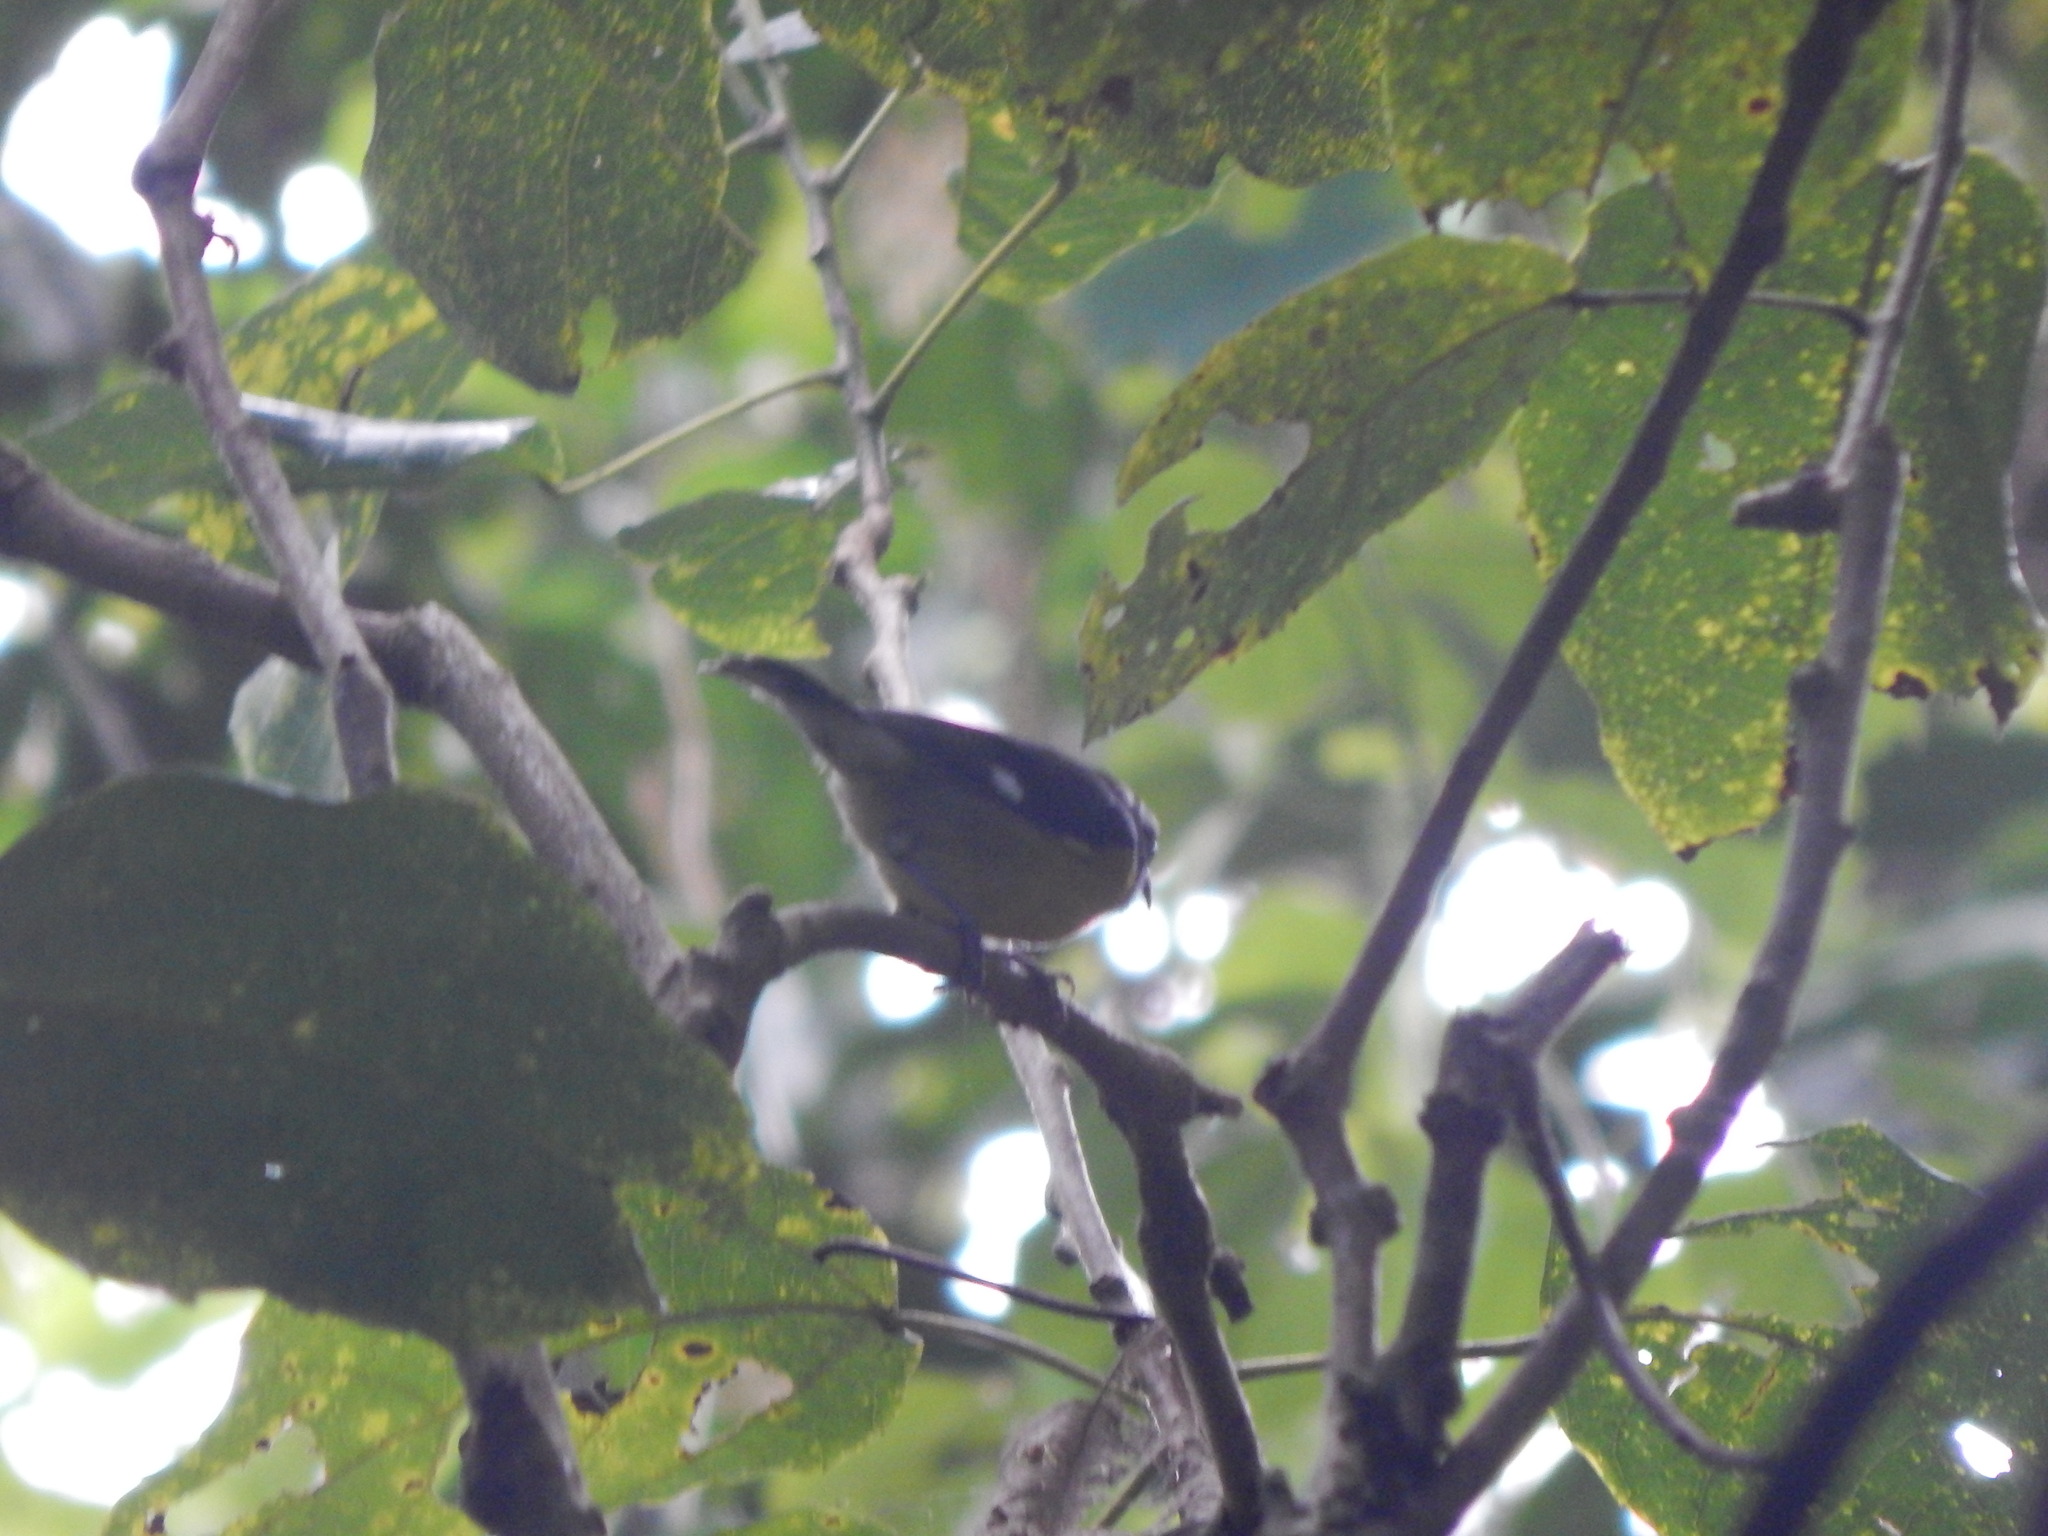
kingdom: Animalia
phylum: Chordata
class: Aves
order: Passeriformes
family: Thraupidae
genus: Coereba
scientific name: Coereba flaveola
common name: Bananaquit
